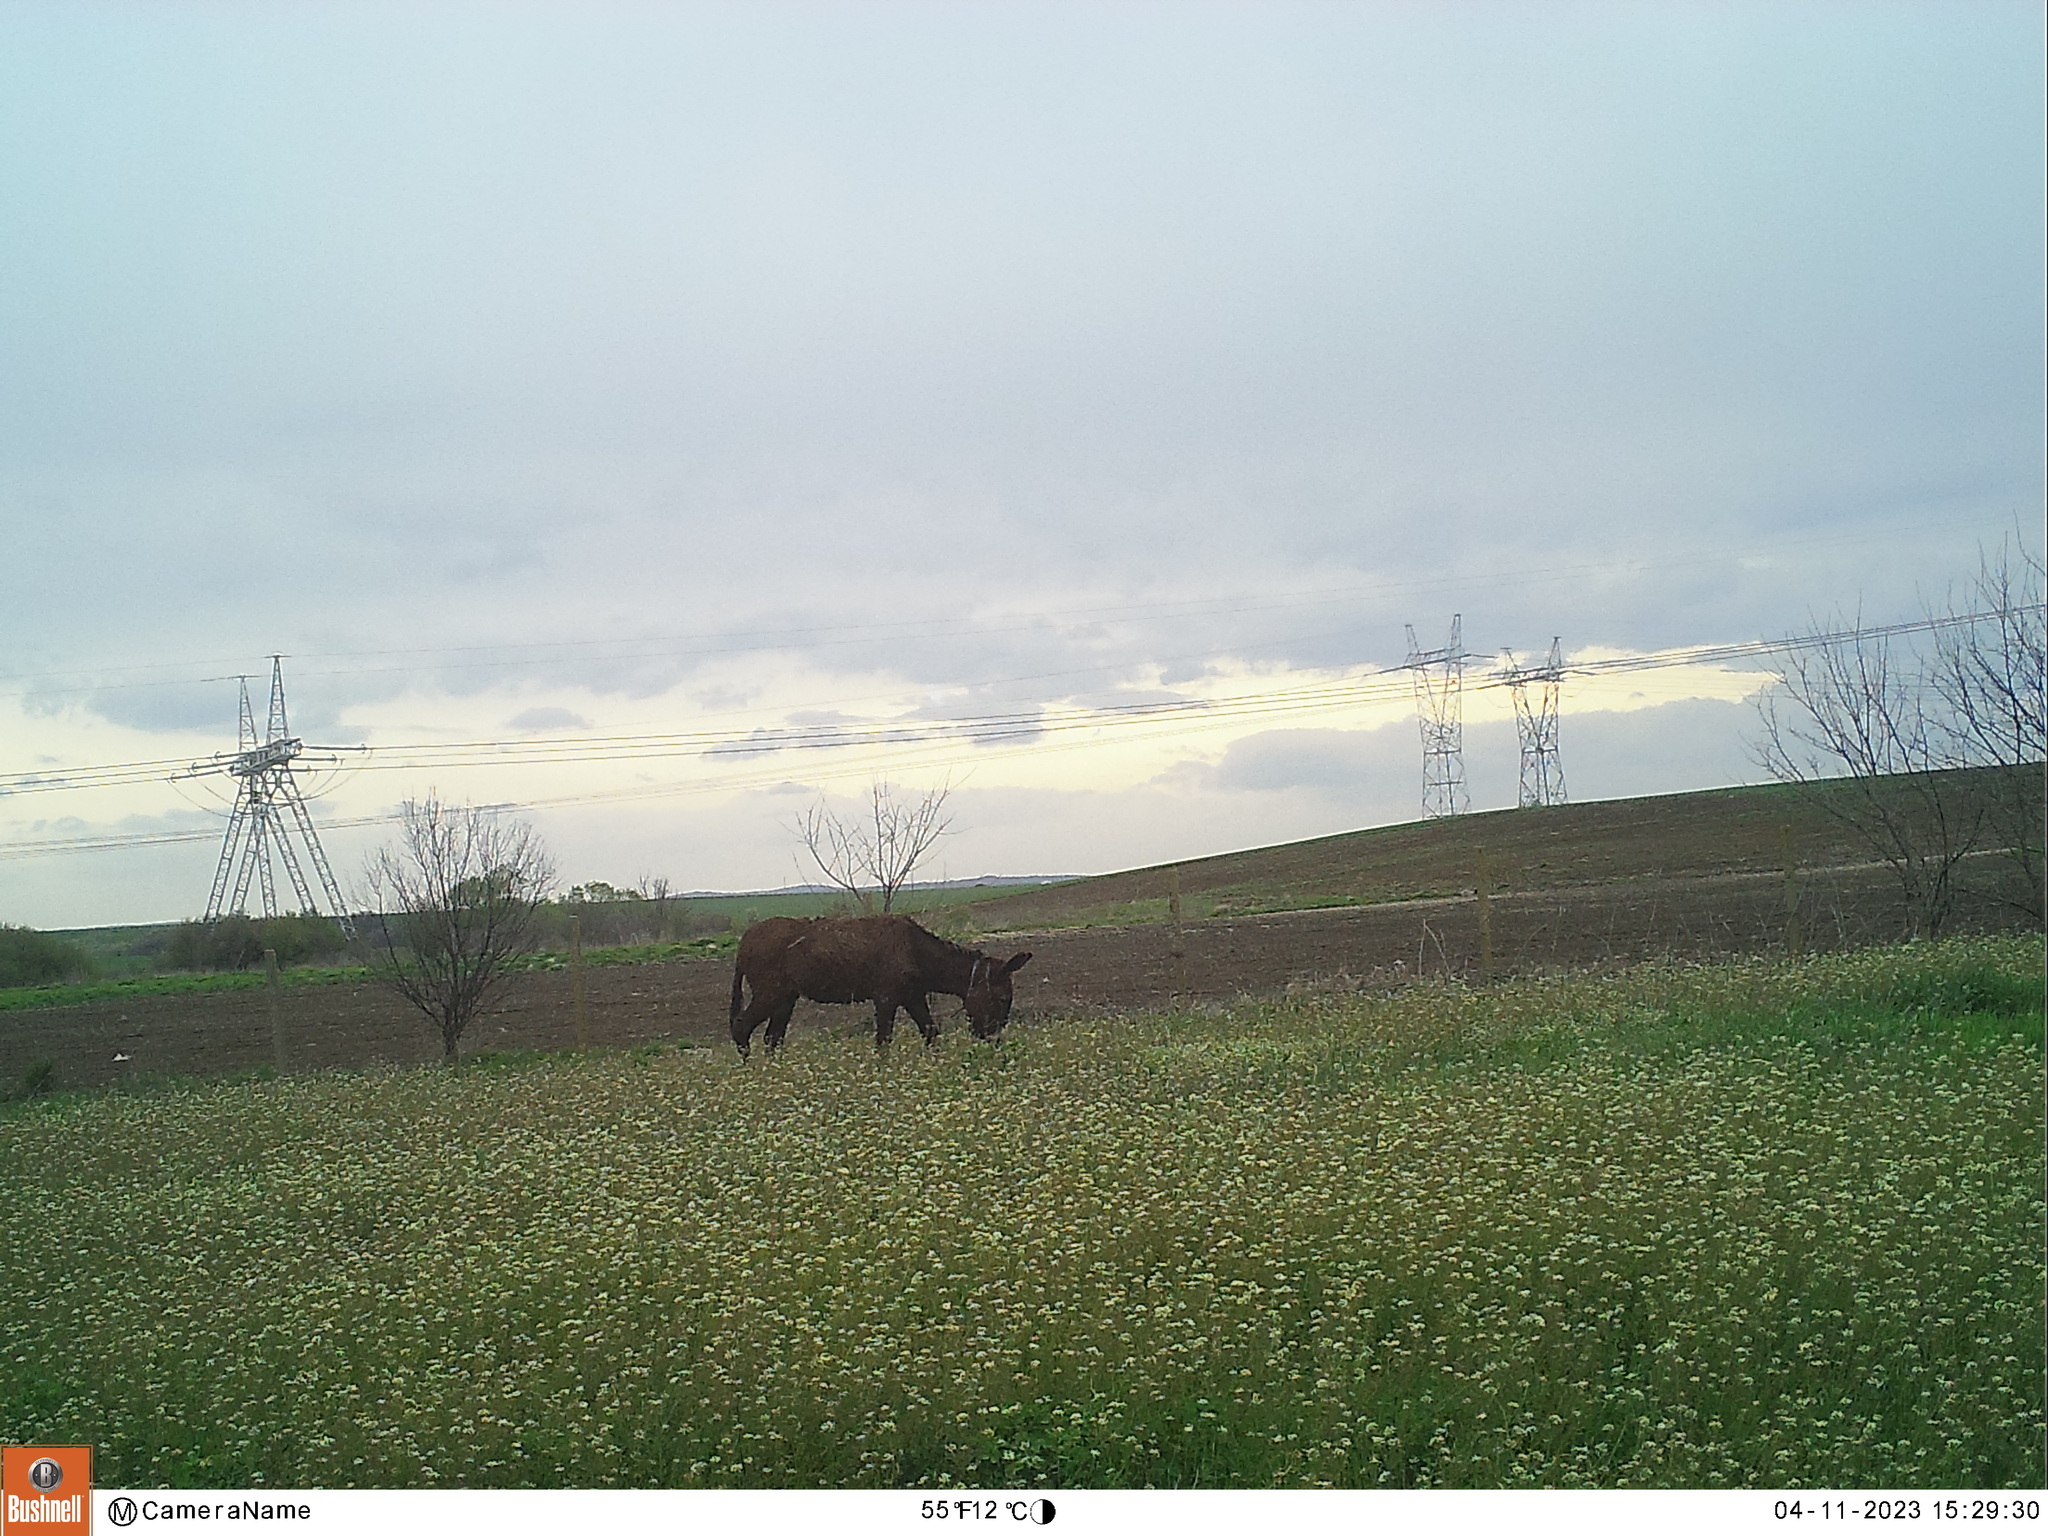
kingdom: Animalia
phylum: Chordata
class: Mammalia
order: Perissodactyla
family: Equidae
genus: Equus
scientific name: Equus asinus
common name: Ass
